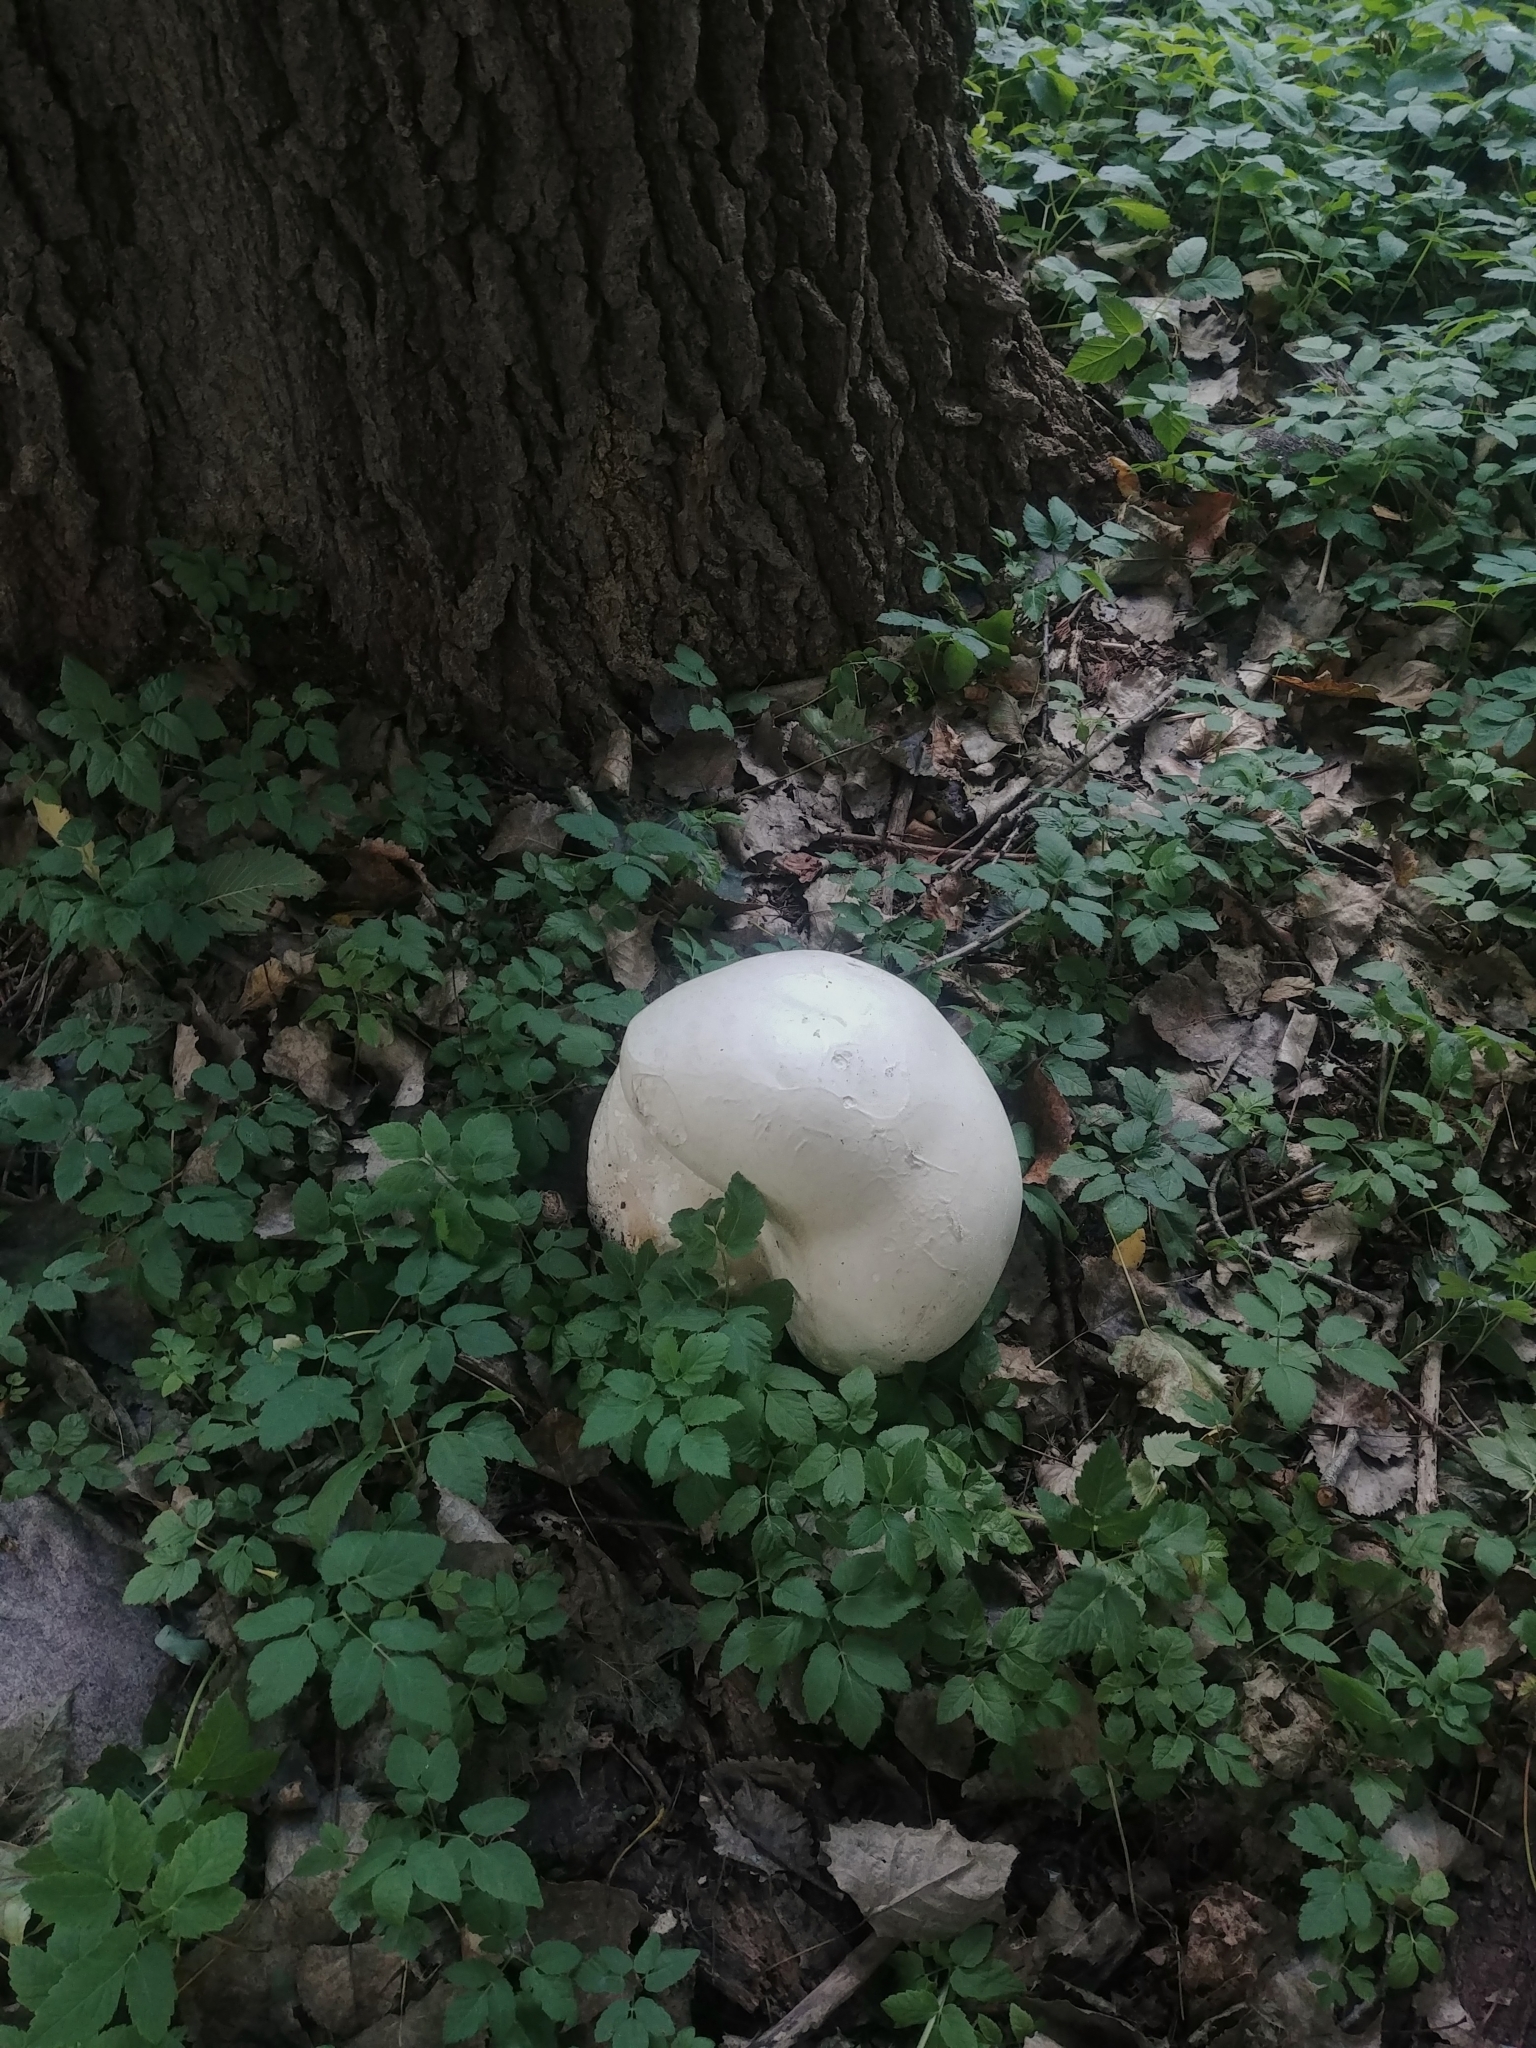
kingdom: Fungi
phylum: Basidiomycota
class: Agaricomycetes
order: Agaricales
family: Lycoperdaceae
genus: Calvatia
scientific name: Calvatia gigantea
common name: Giant puffball
